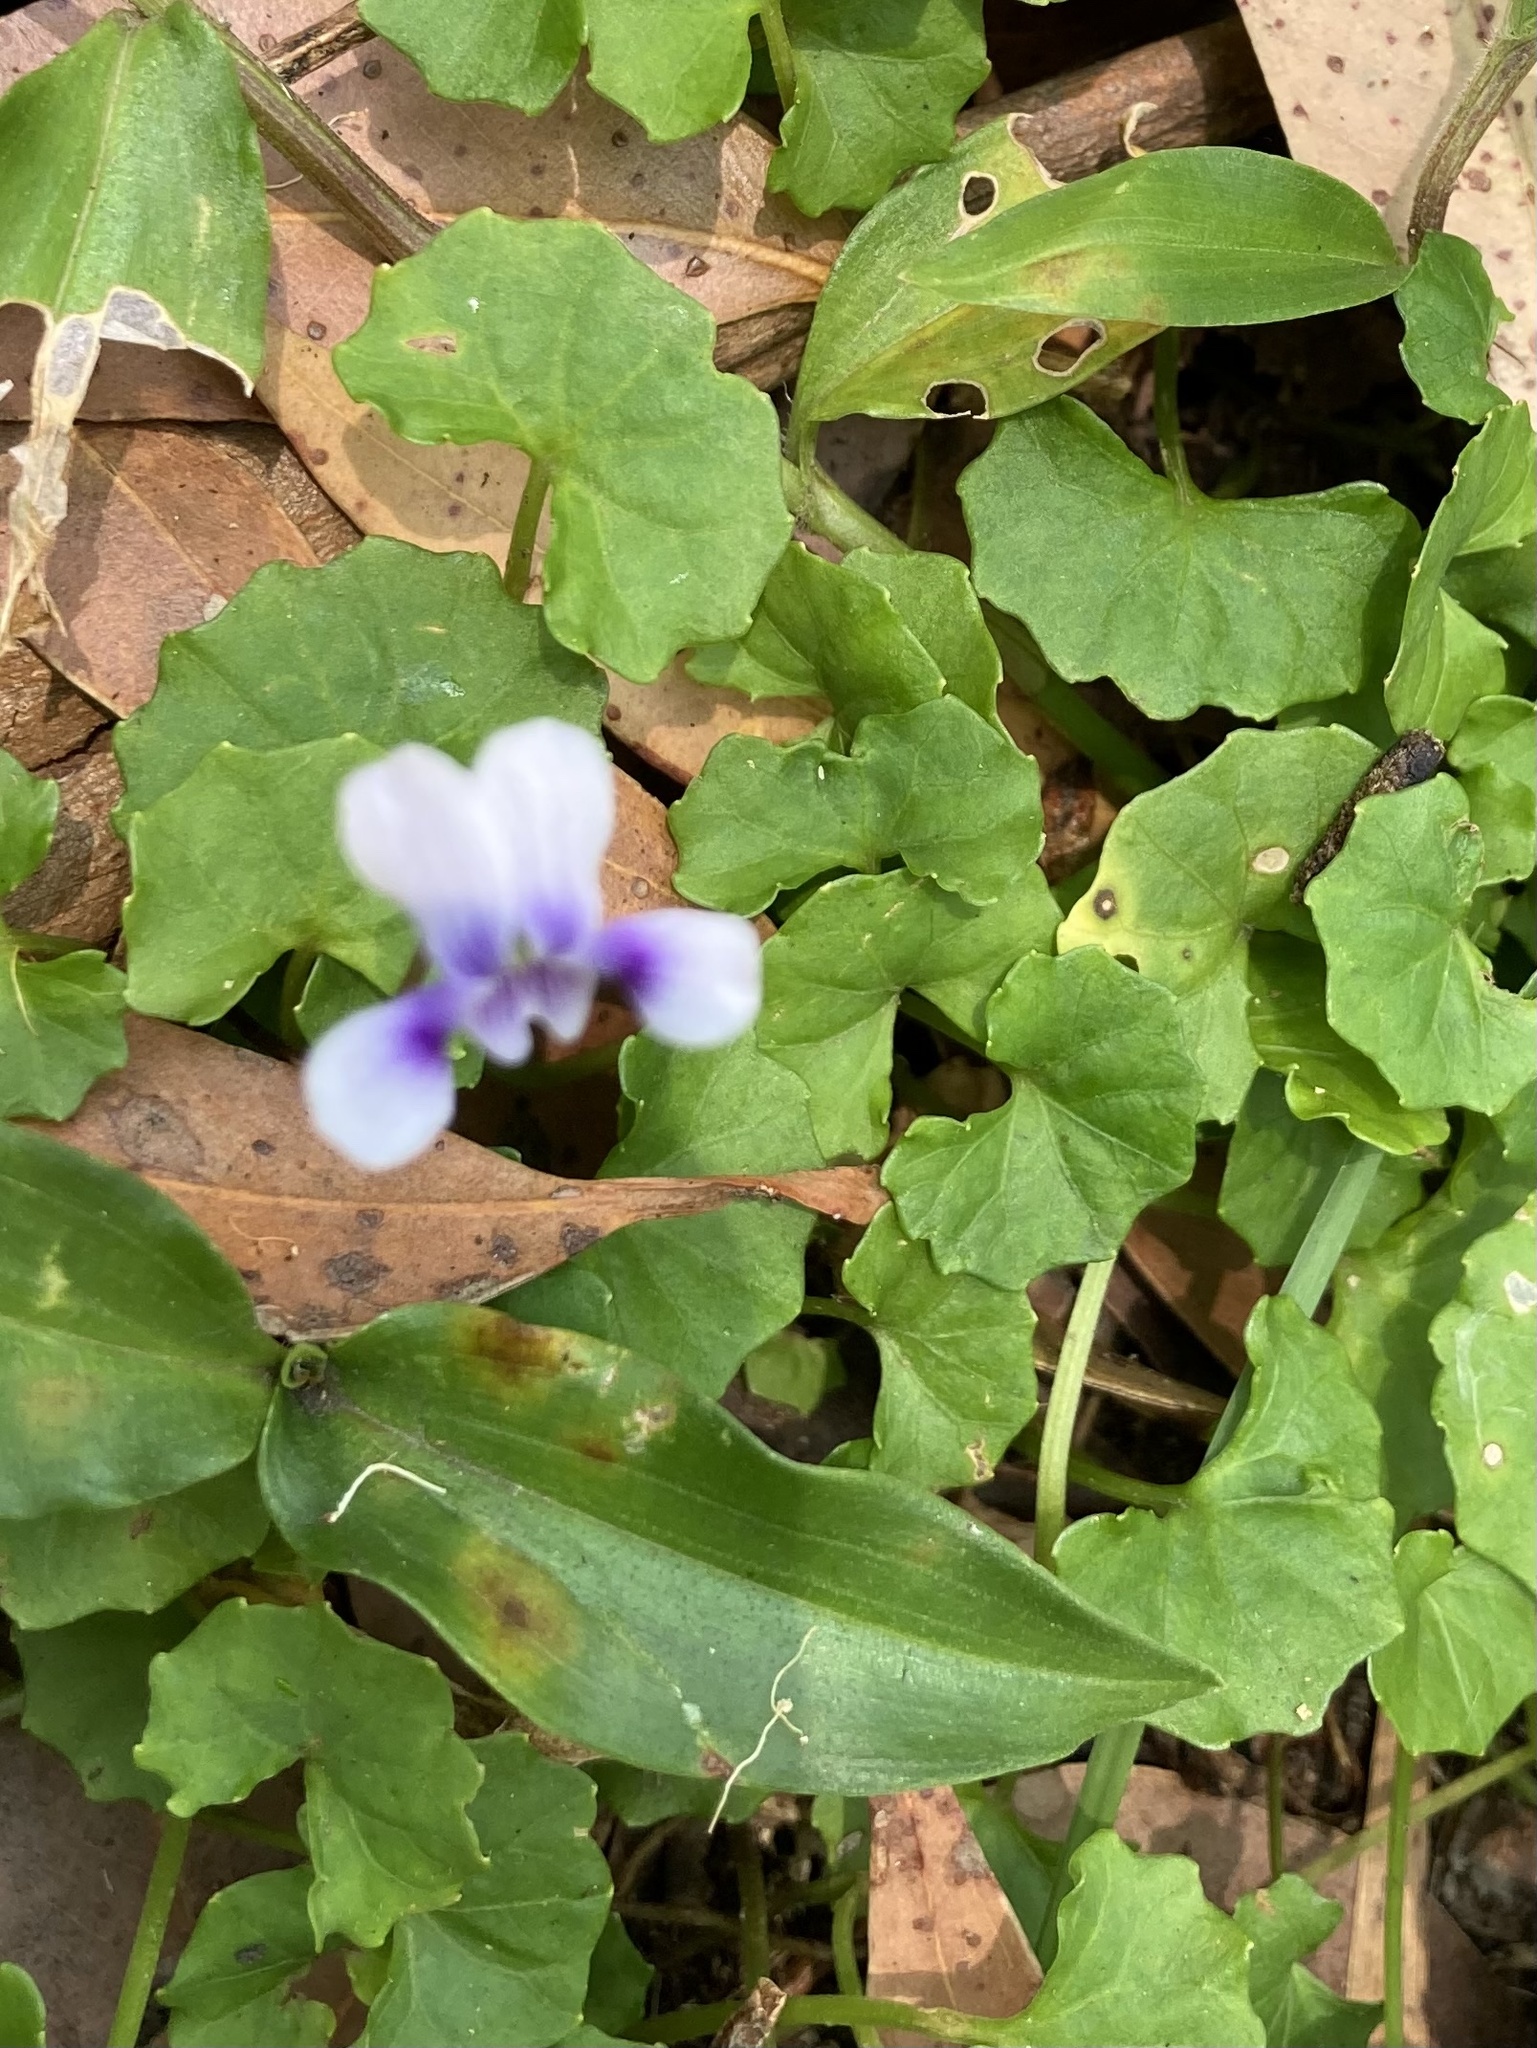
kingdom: Plantae
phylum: Tracheophyta
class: Magnoliopsida
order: Malpighiales
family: Violaceae
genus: Viola
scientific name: Viola banksii
